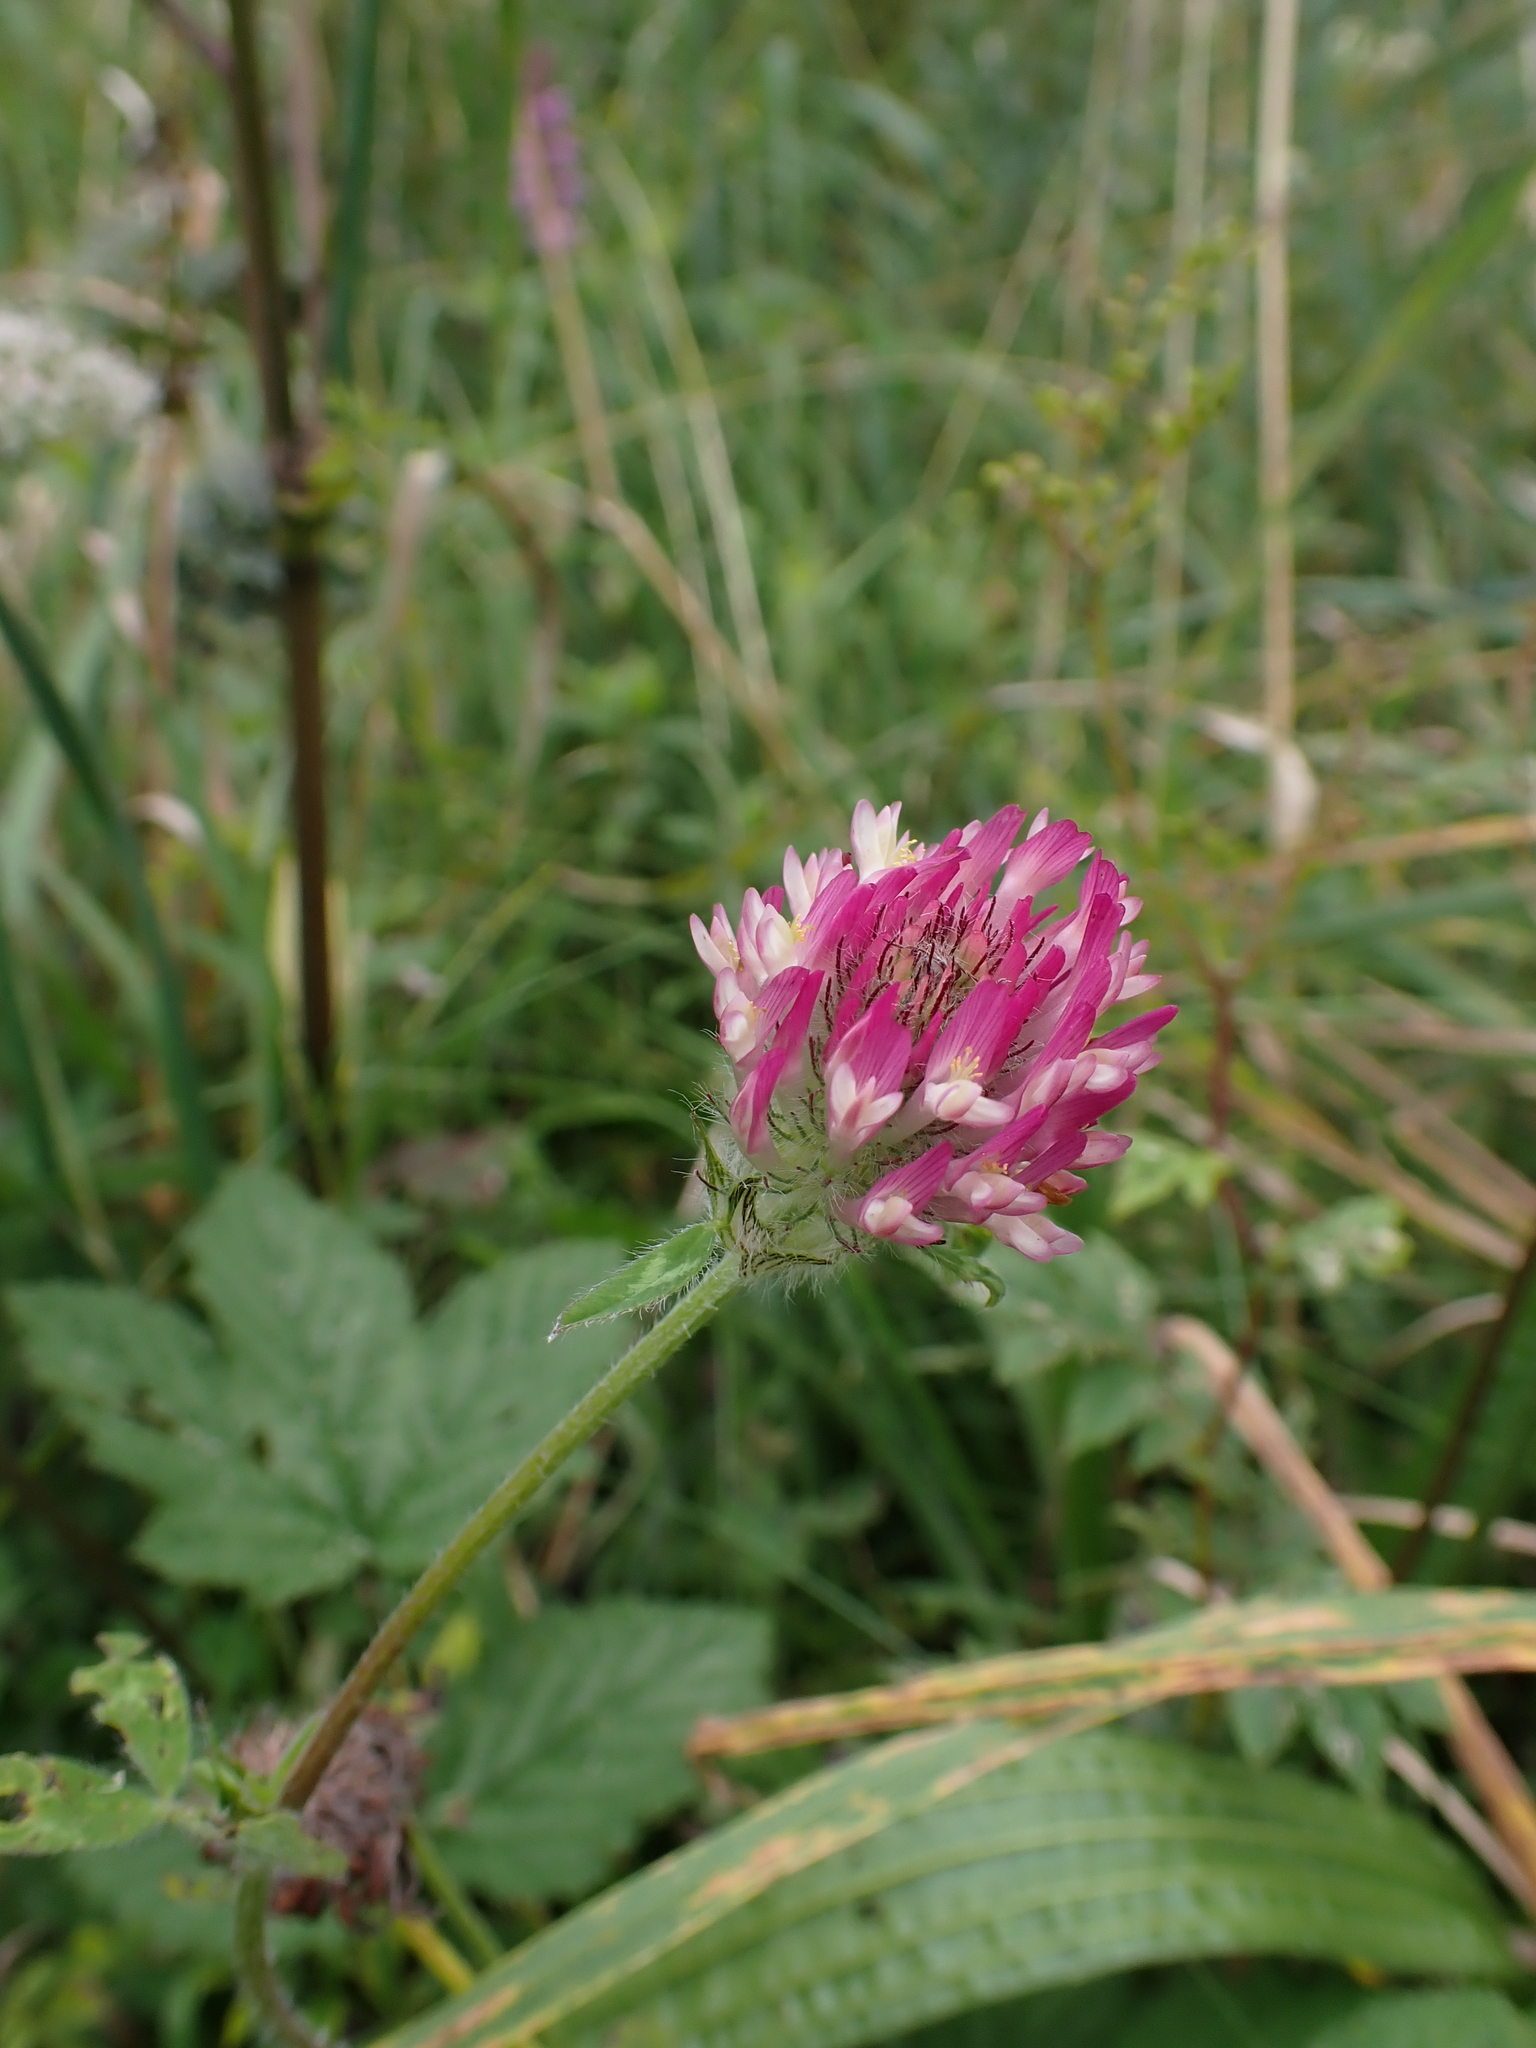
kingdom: Plantae
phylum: Tracheophyta
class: Magnoliopsida
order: Fabales
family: Fabaceae
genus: Trifolium
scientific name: Trifolium pratense
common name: Red clover
